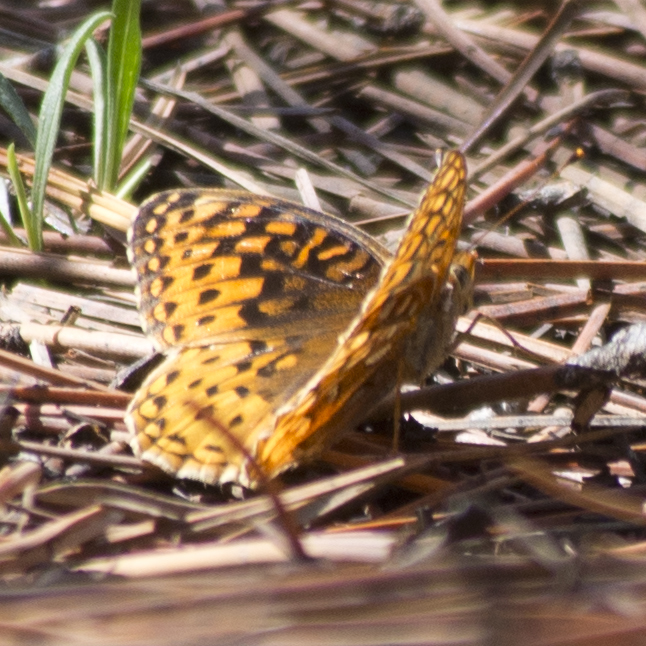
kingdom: Animalia
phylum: Arthropoda
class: Insecta
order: Lepidoptera
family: Nymphalidae
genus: Speyeria
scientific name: Speyeria atlantis
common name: Atlantis fritillary
